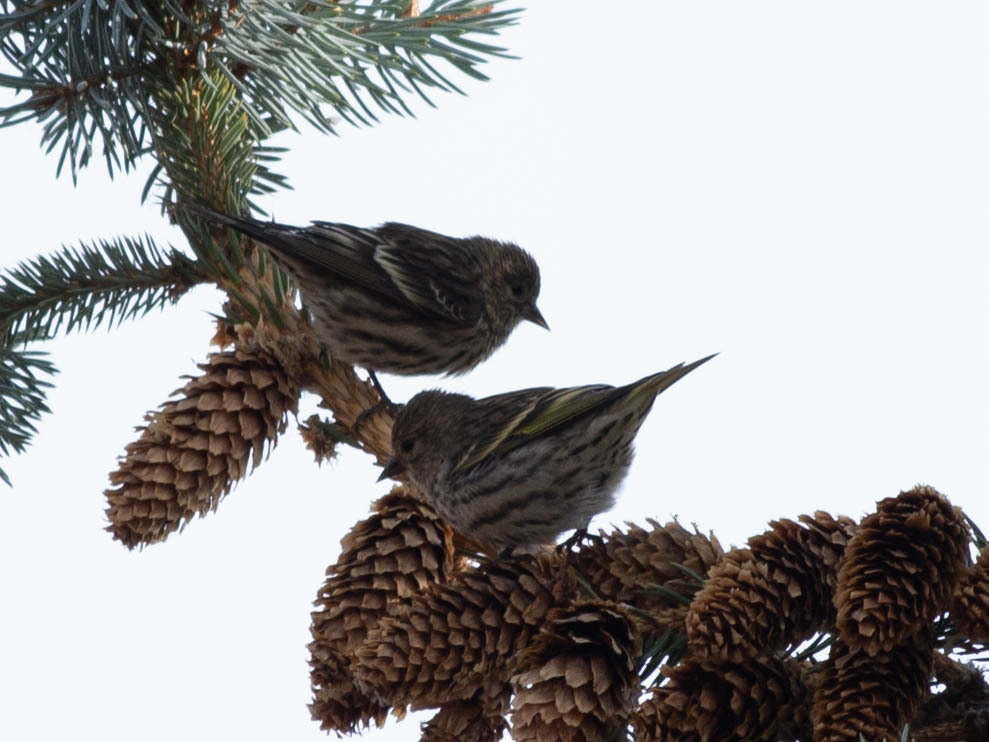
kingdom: Animalia
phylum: Chordata
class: Aves
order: Passeriformes
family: Fringillidae
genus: Spinus
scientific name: Spinus pinus
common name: Pine siskin
